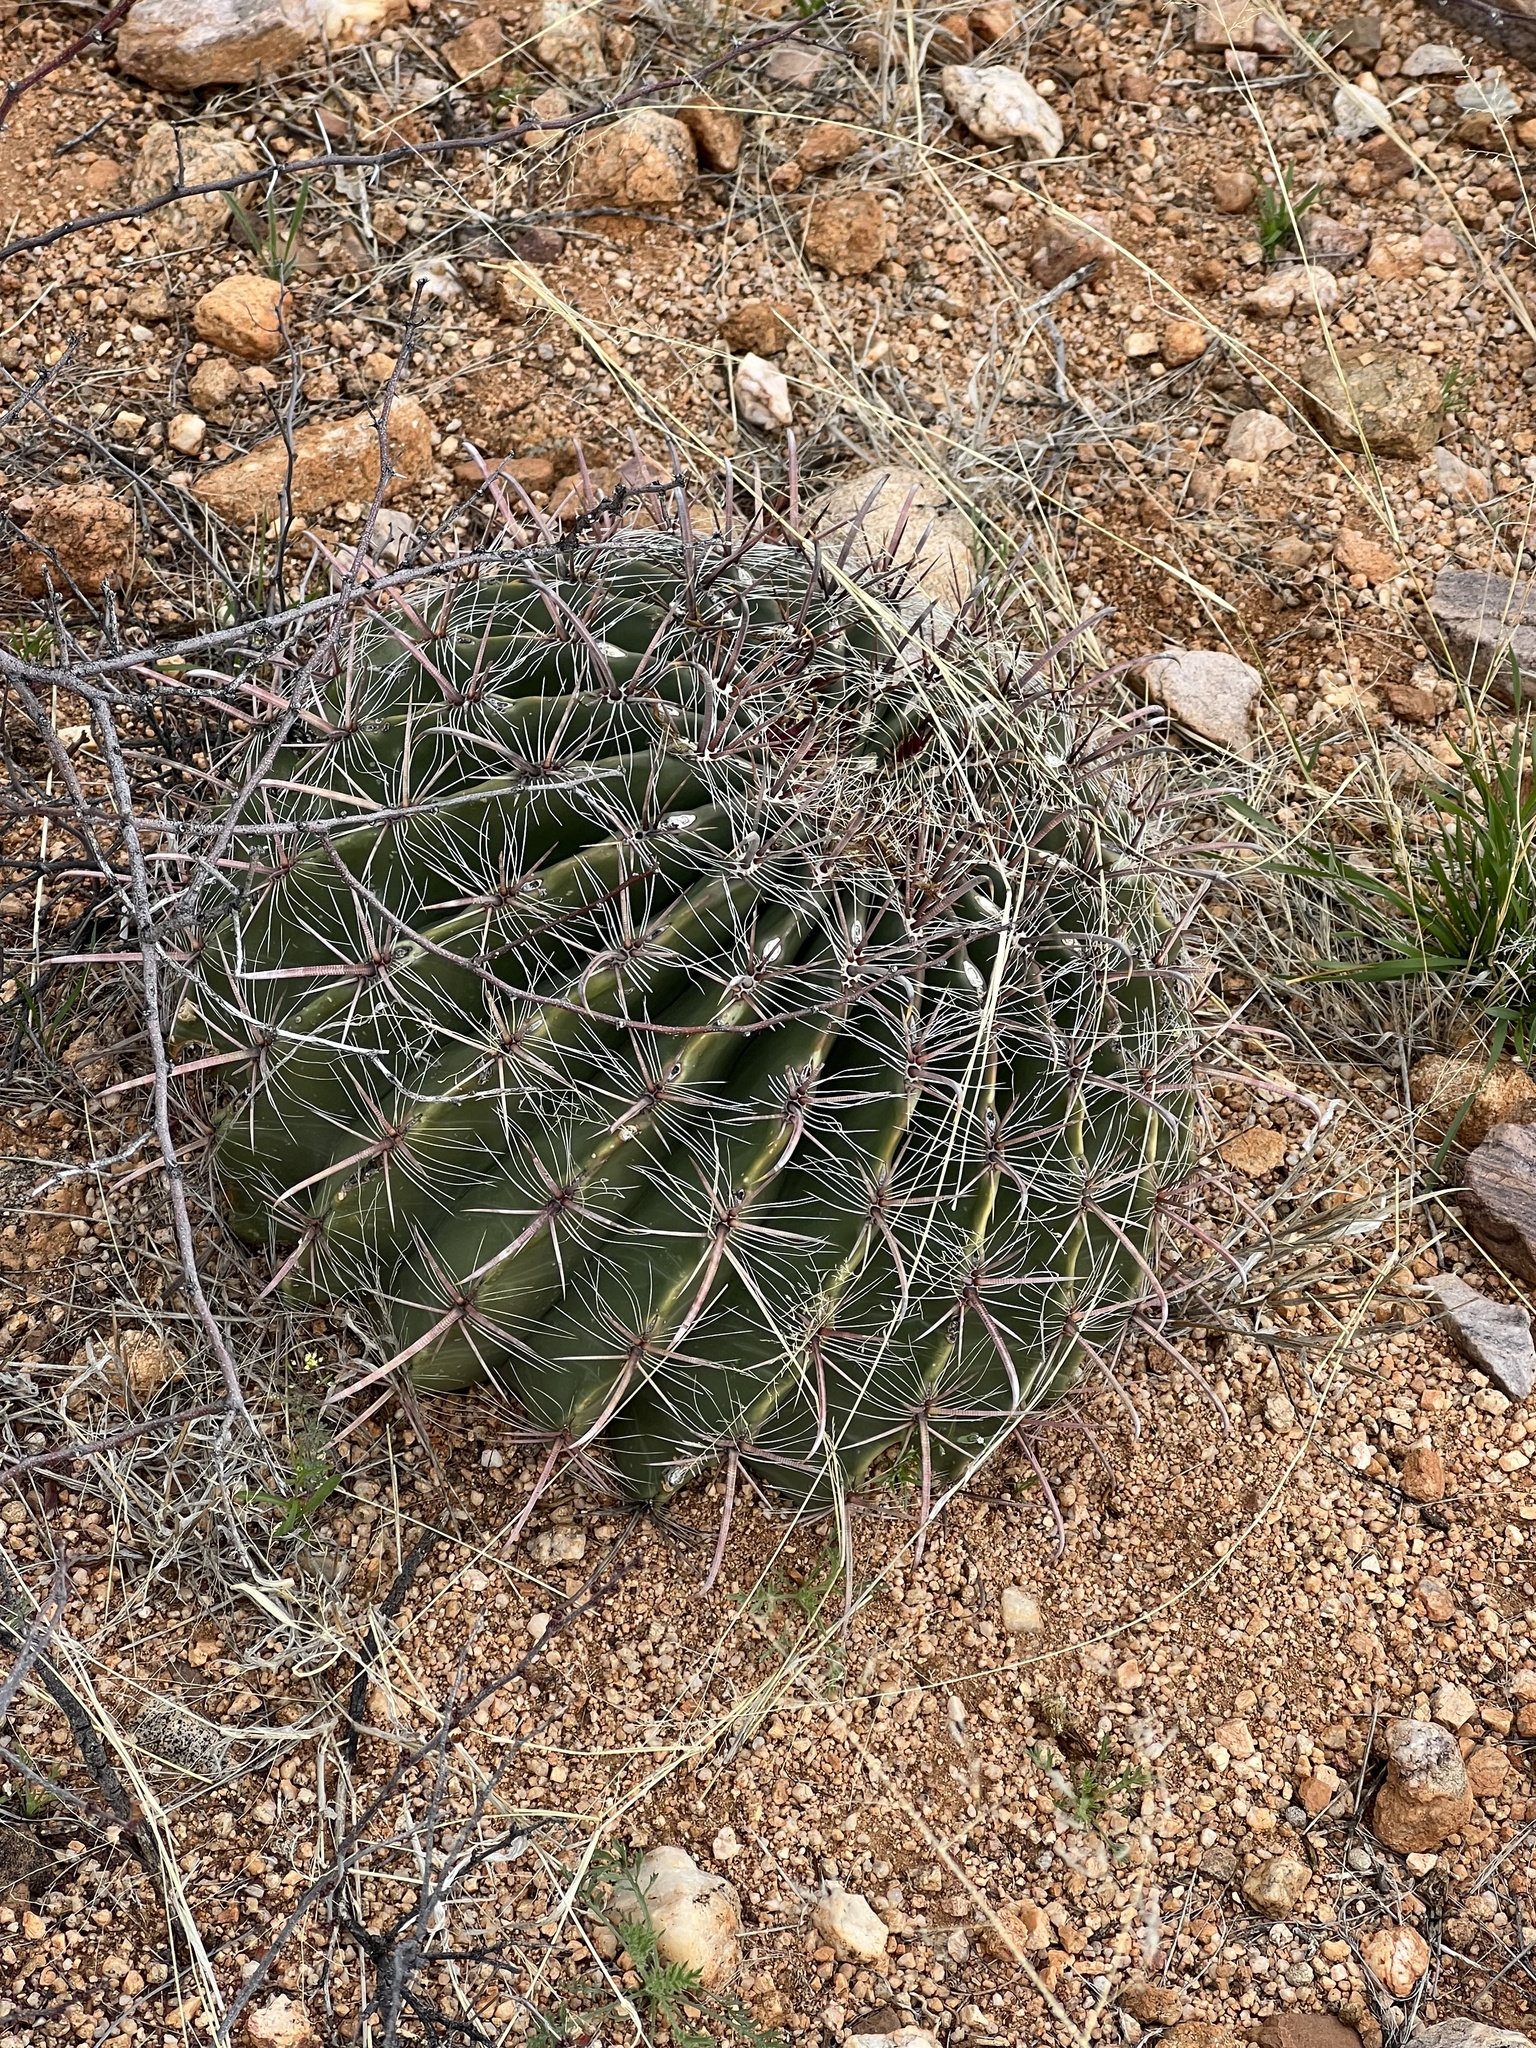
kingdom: Plantae
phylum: Tracheophyta
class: Magnoliopsida
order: Caryophyllales
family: Cactaceae
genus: Ferocactus
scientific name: Ferocactus wislizeni
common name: Candy barrel cactus
